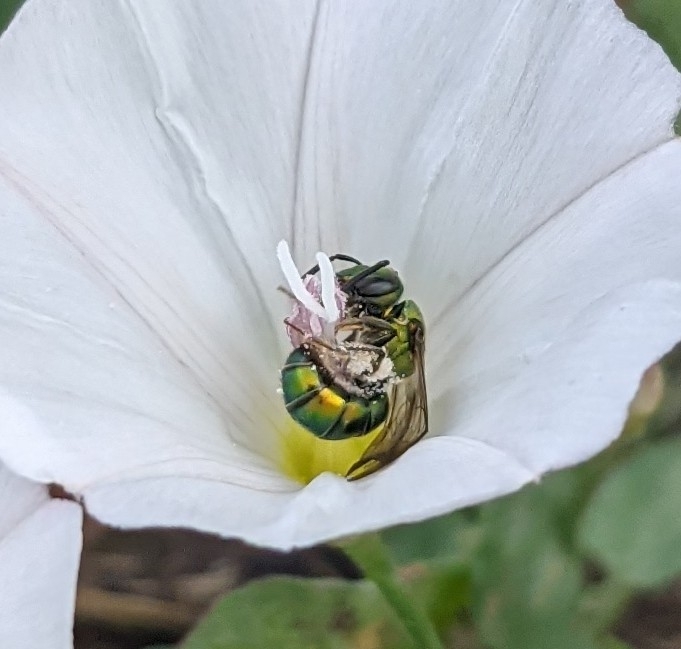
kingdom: Animalia
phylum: Arthropoda
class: Insecta
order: Hymenoptera
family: Halictidae
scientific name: Halictidae
